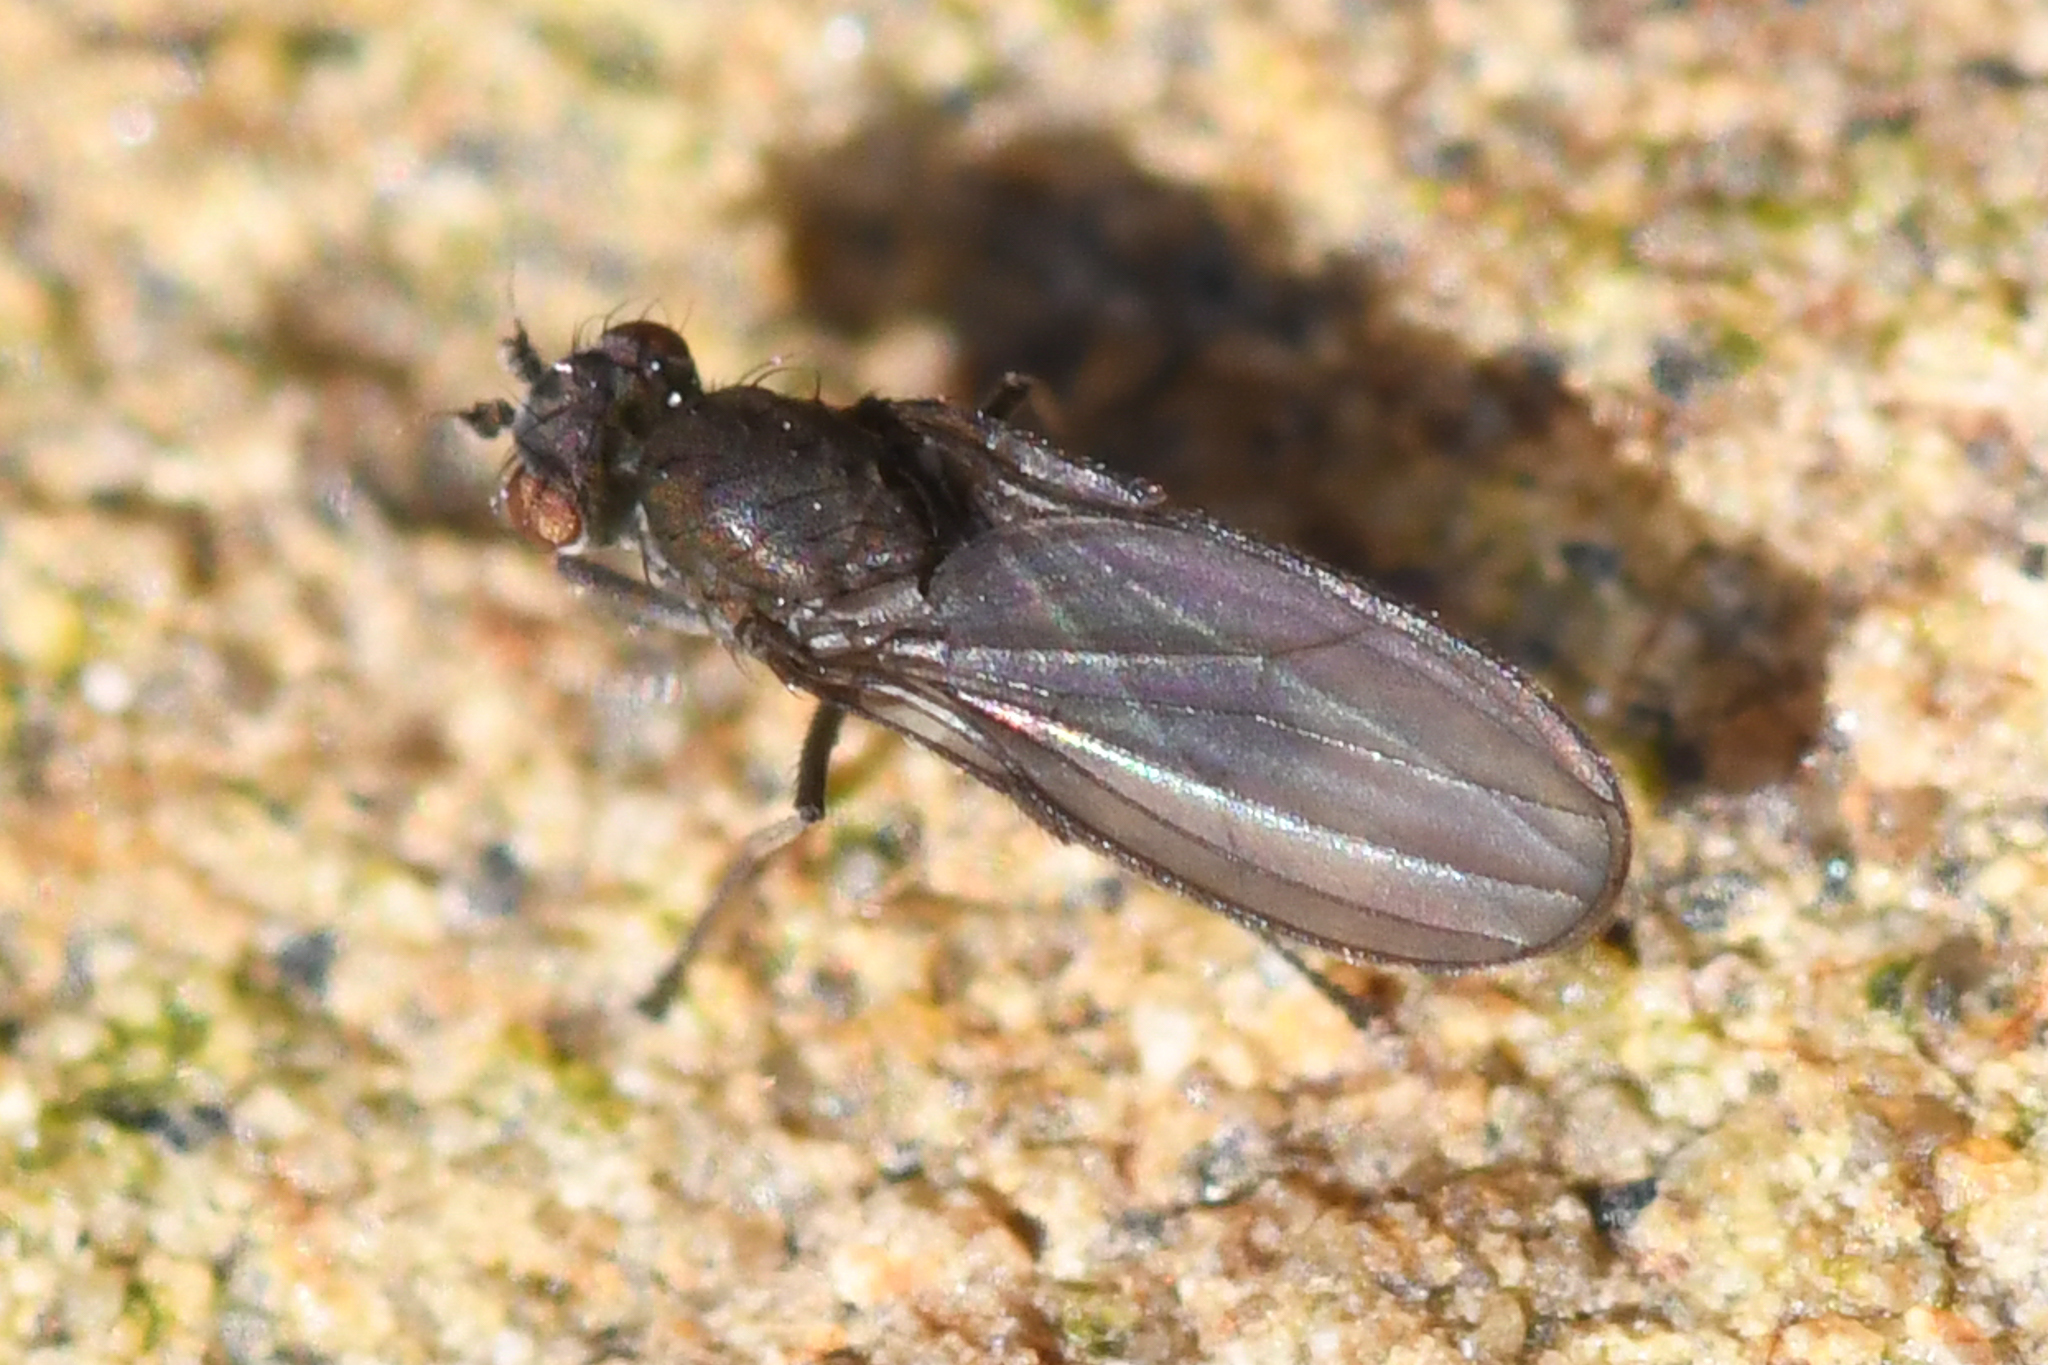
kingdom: Animalia
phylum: Arthropoda
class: Insecta
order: Diptera
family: Canacidae
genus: Canaceoides
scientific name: Canaceoides nudatus
